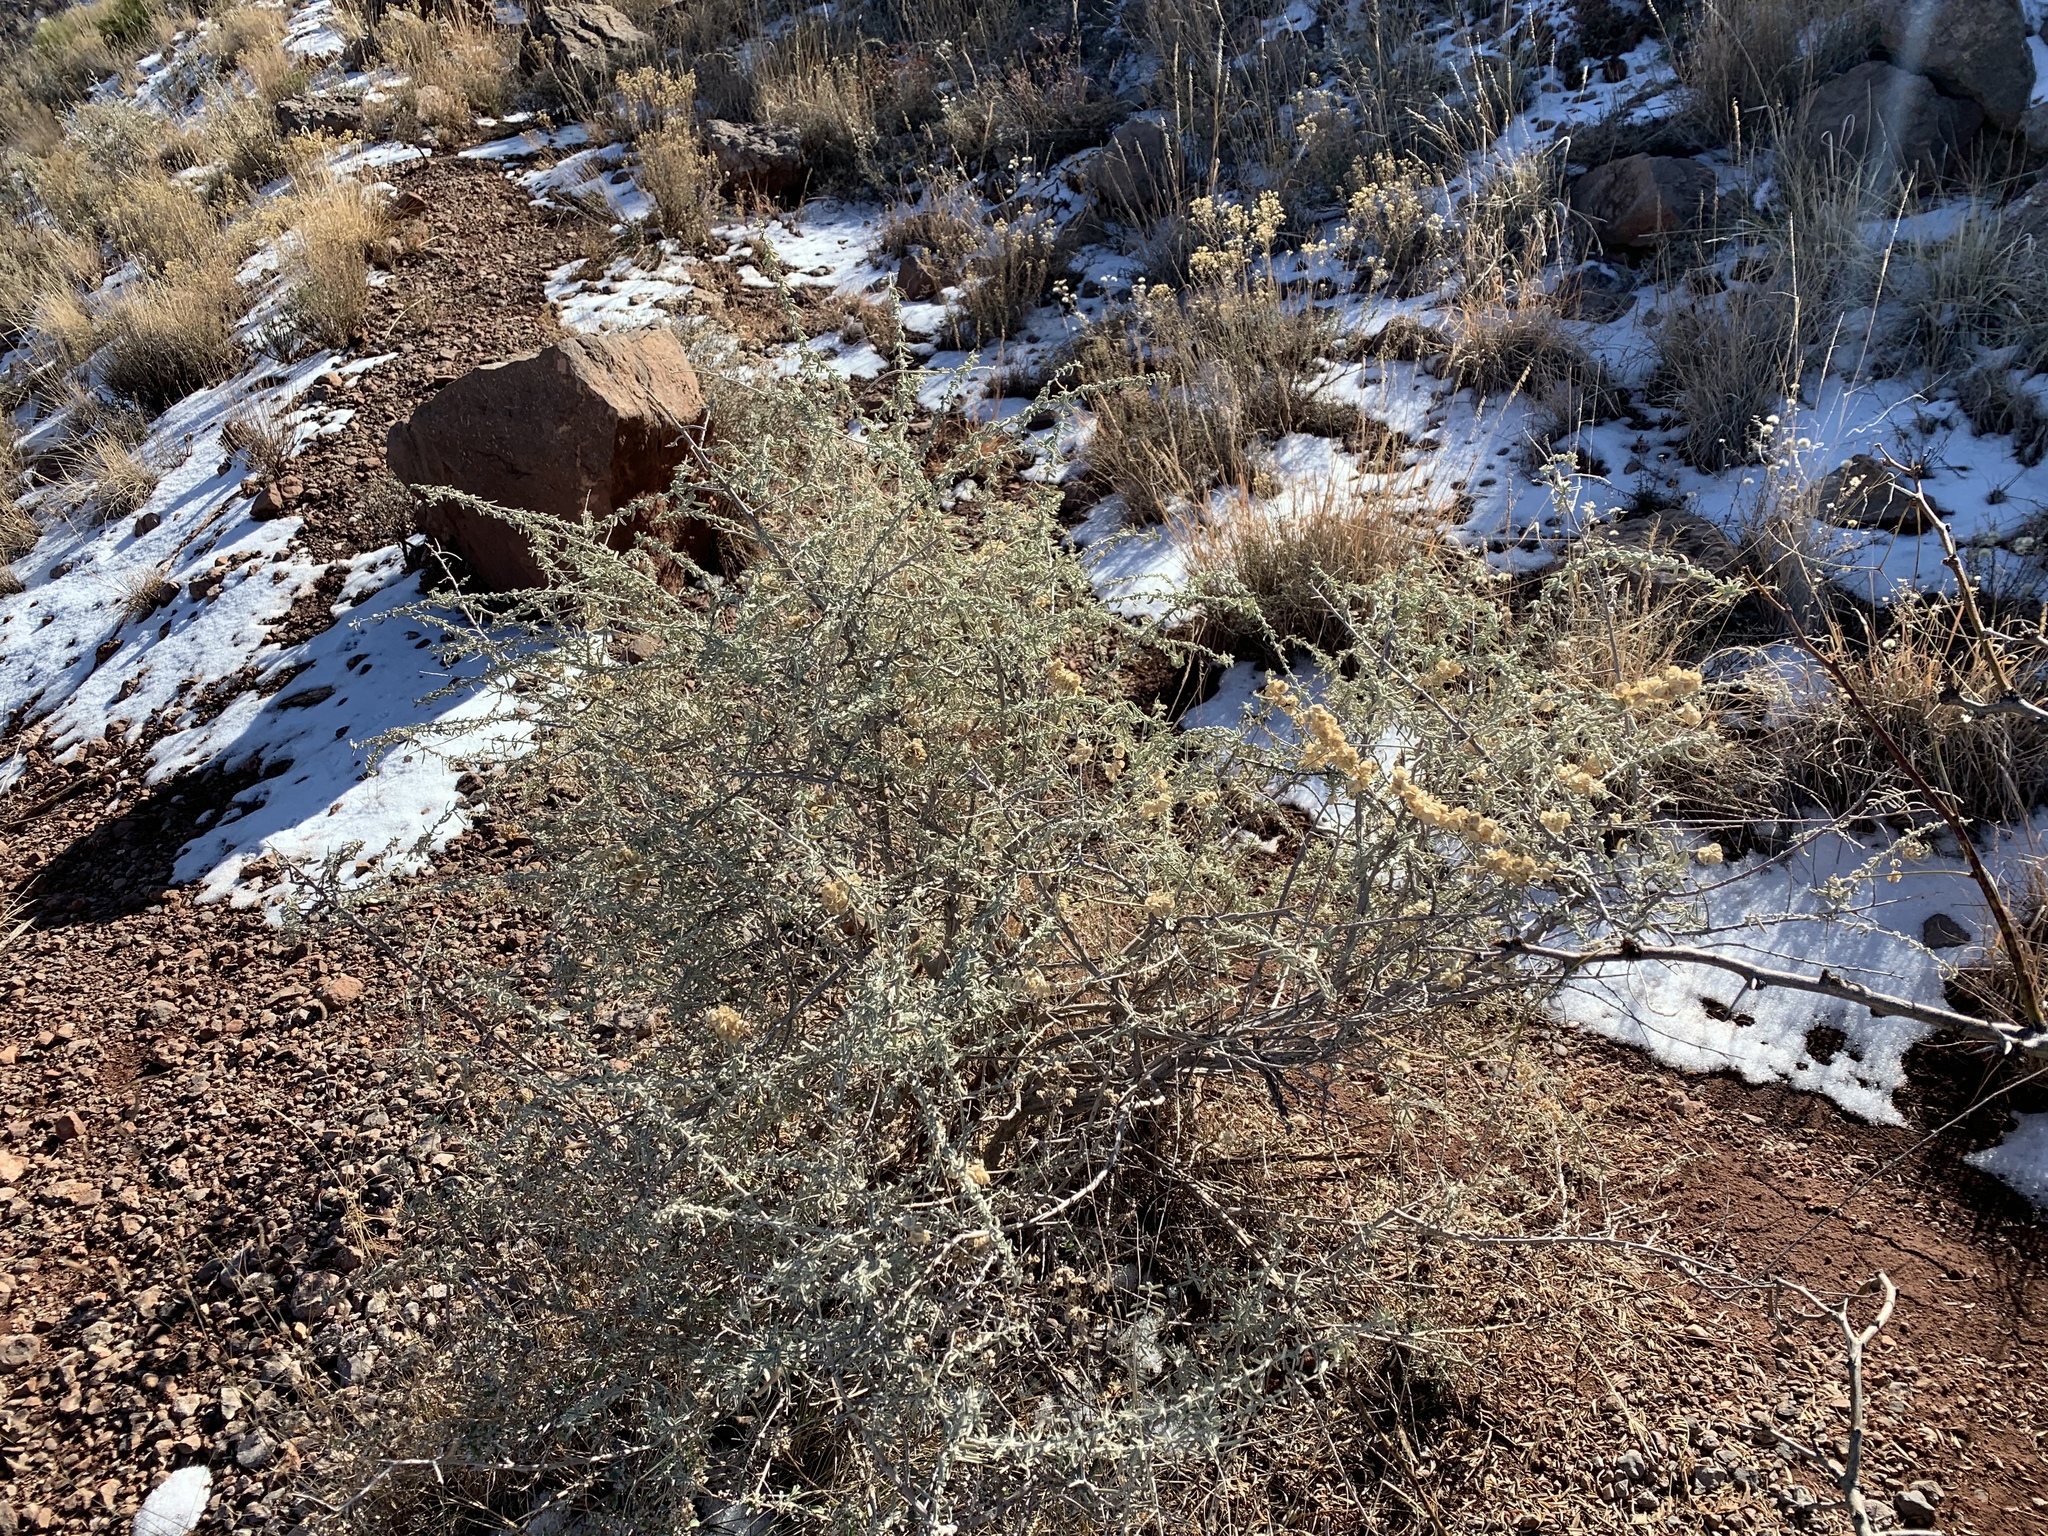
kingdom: Plantae
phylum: Tracheophyta
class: Magnoliopsida
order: Caryophyllales
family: Amaranthaceae
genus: Atriplex
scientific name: Atriplex canescens
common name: Four-wing saltbush
